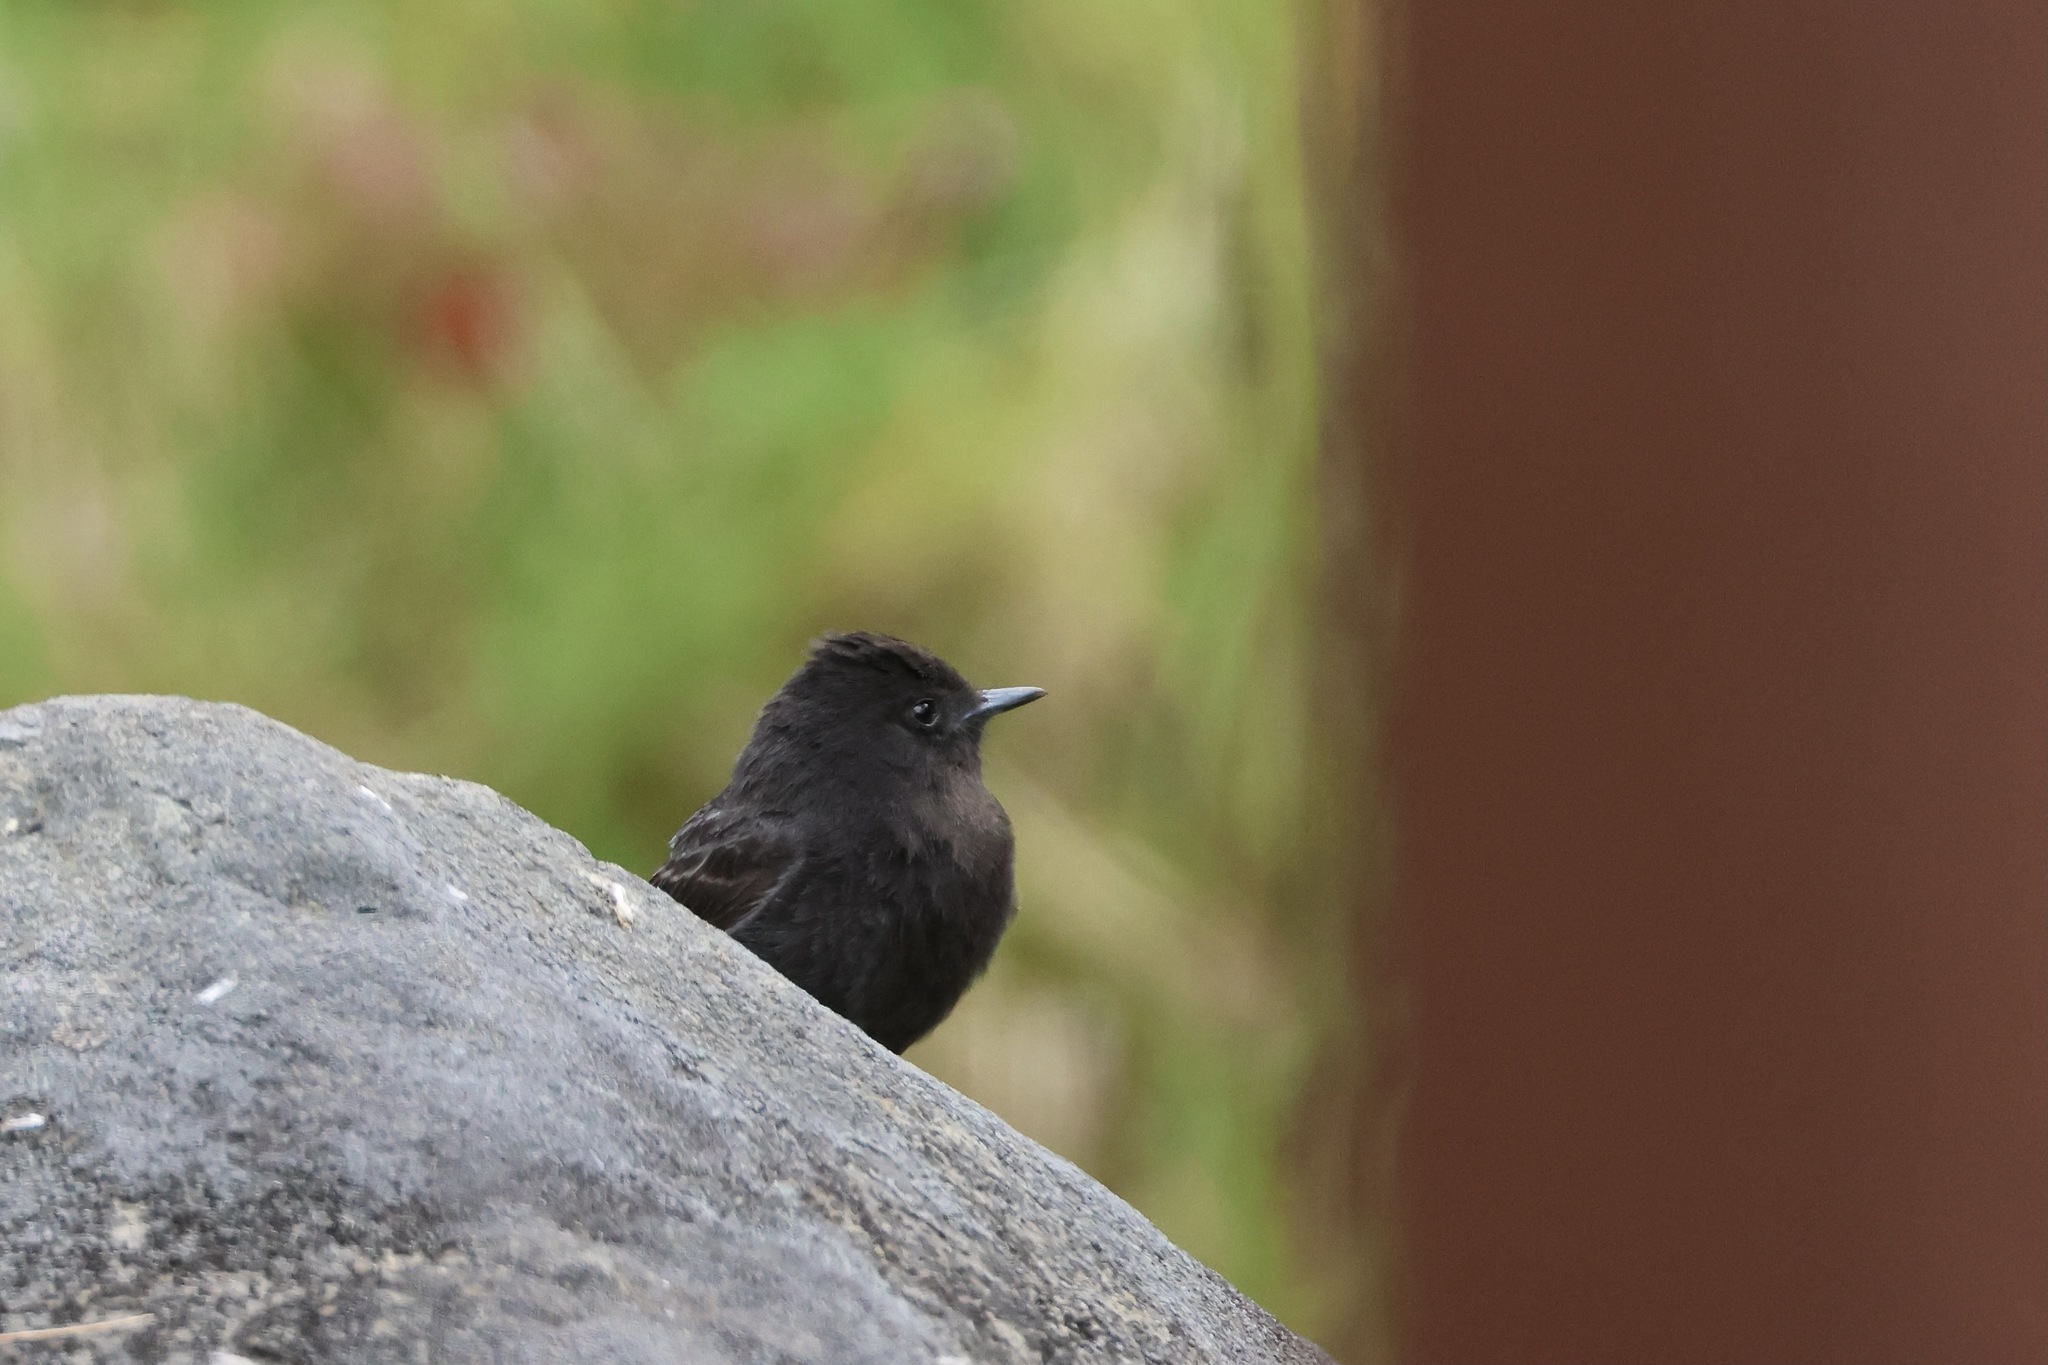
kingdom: Animalia
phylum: Chordata
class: Aves
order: Passeriformes
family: Tyrannidae
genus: Sayornis
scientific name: Sayornis nigricans
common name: Black phoebe
